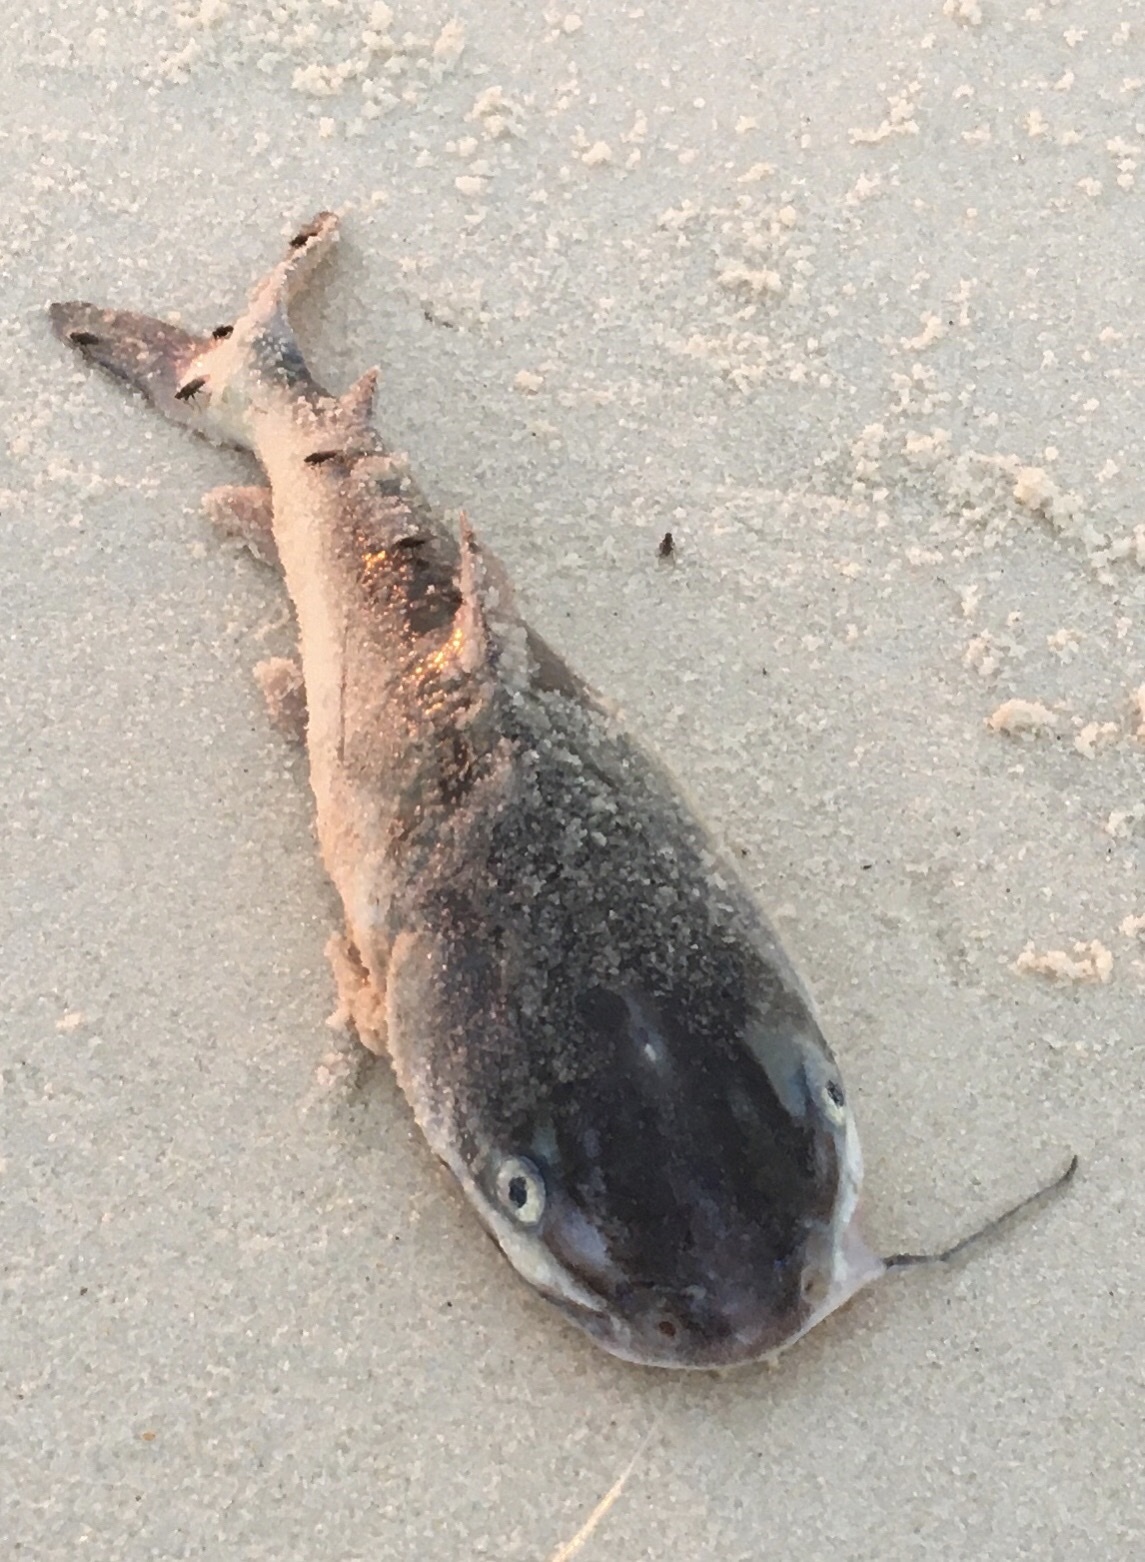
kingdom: Animalia
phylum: Chordata
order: Siluriformes
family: Ariidae
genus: Ariopsis
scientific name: Ariopsis felis
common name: Hardhead catfish
